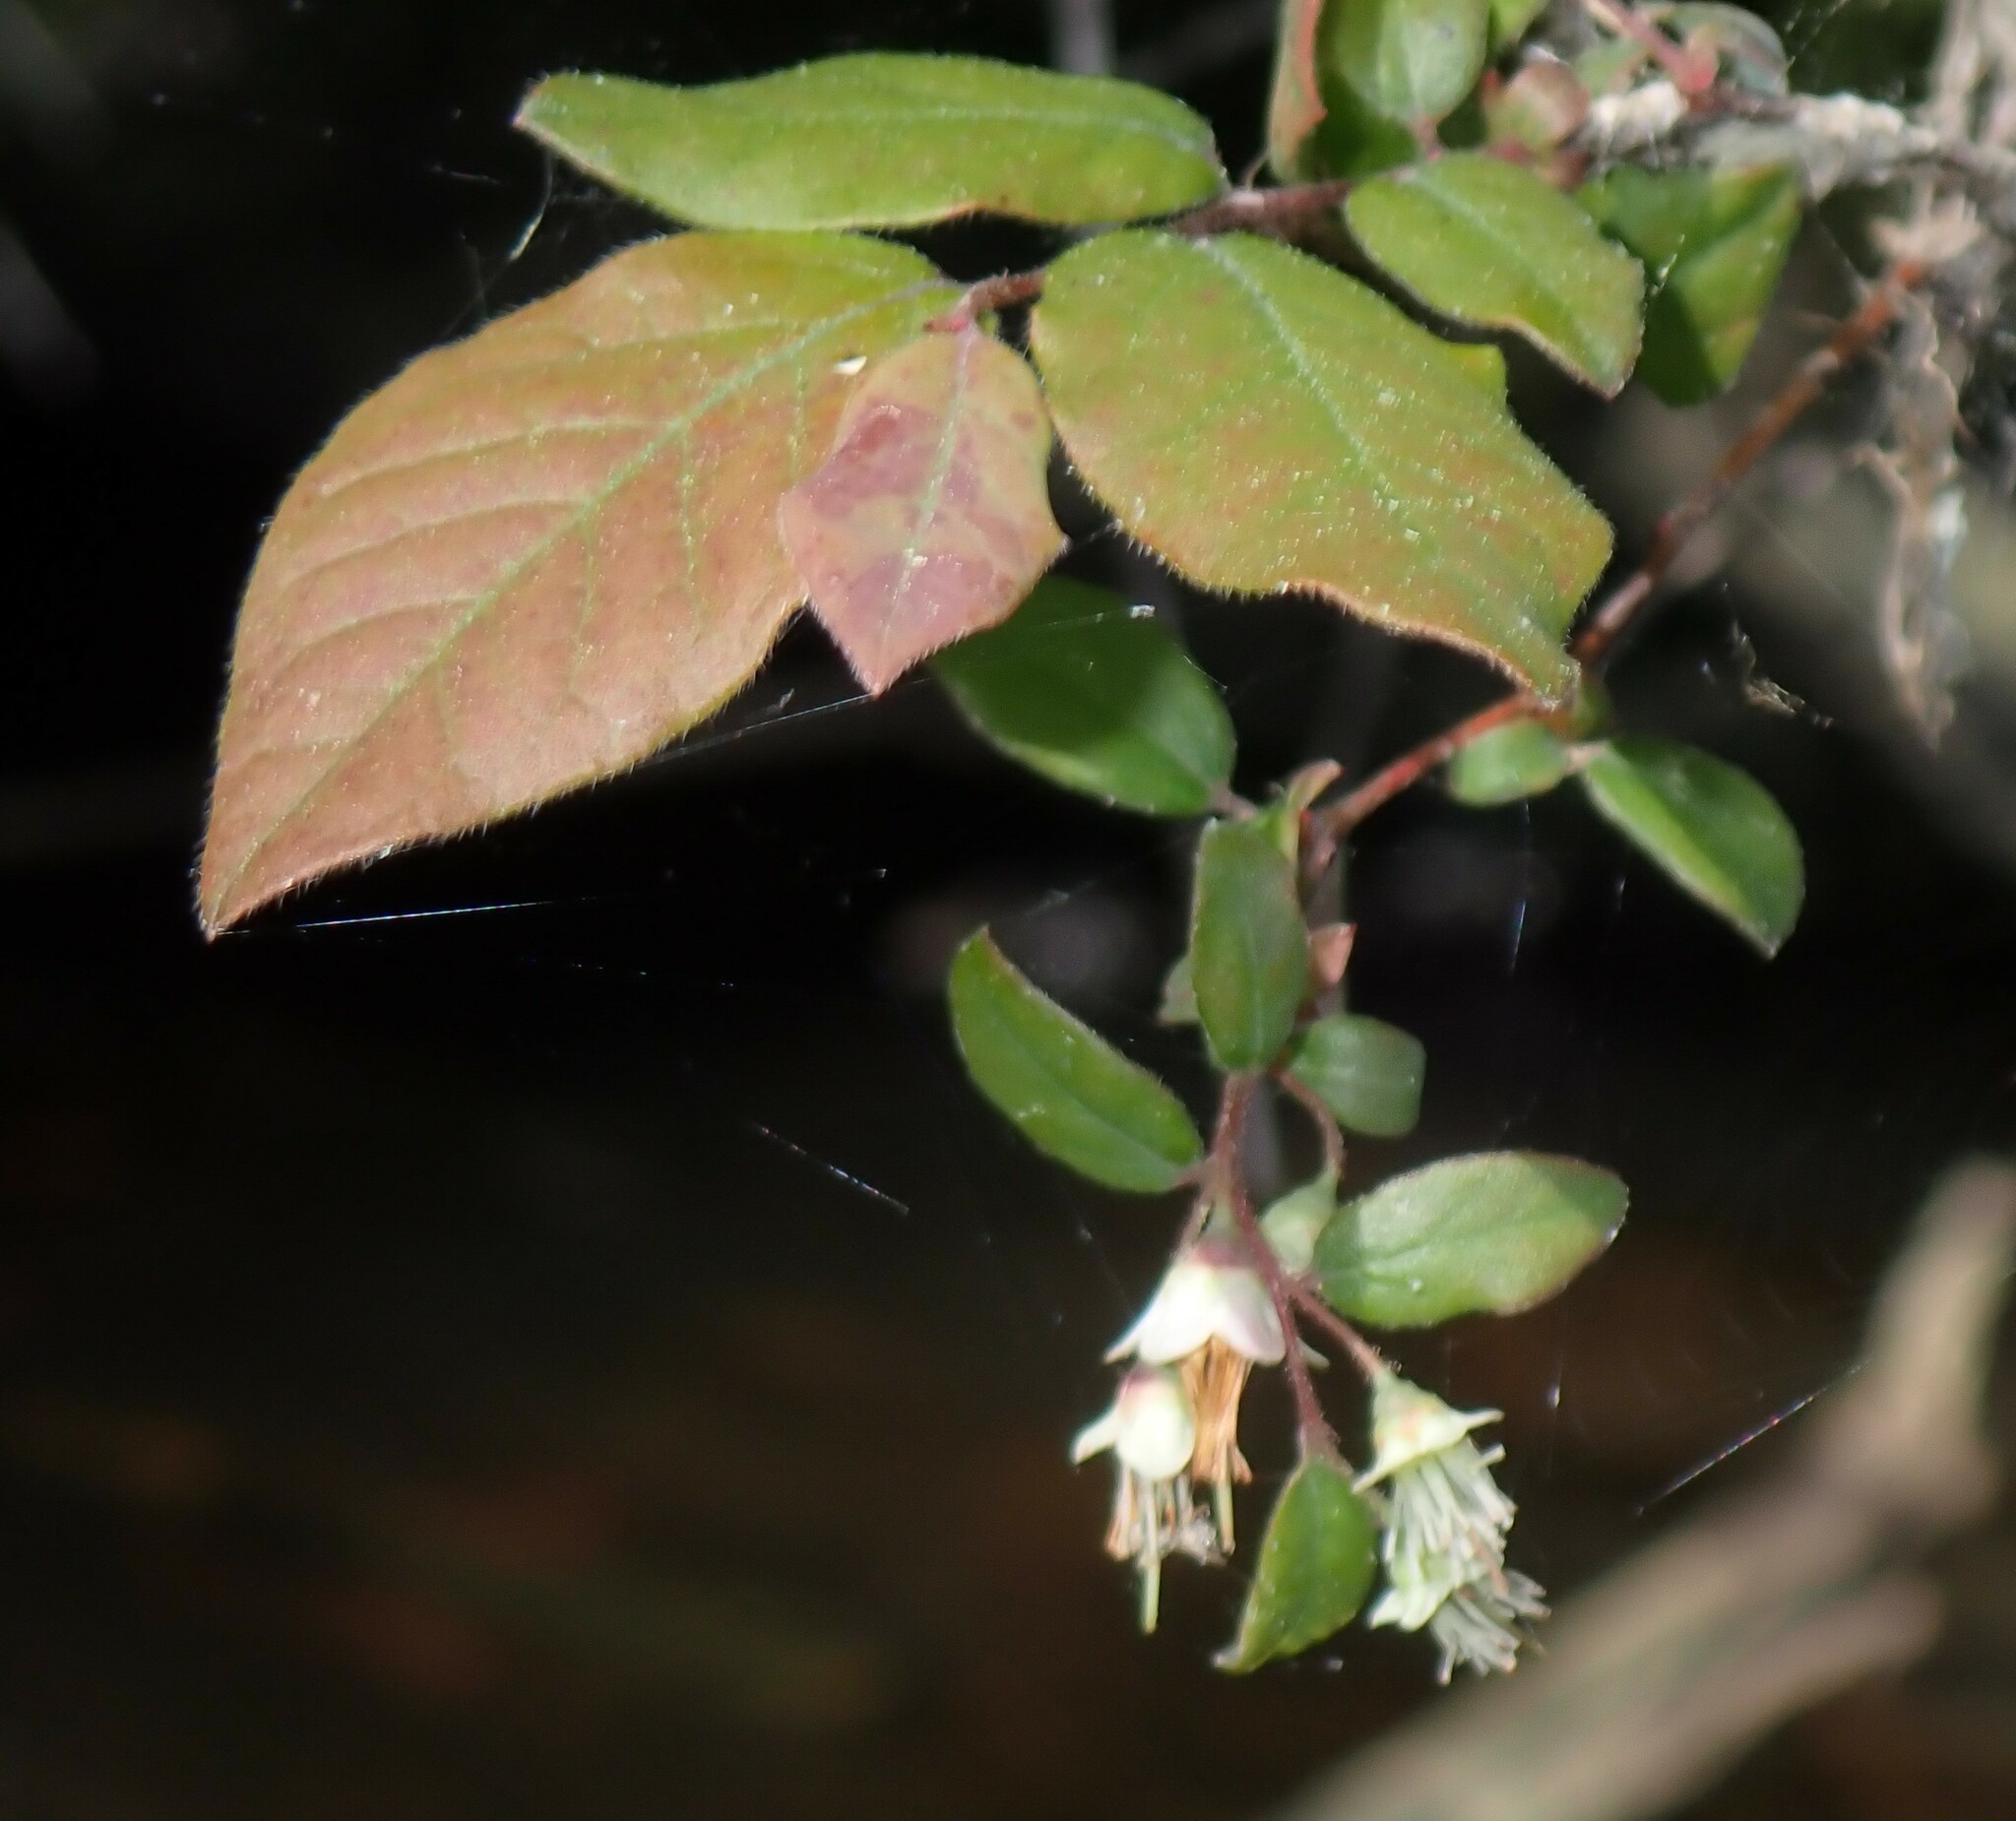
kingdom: Plantae
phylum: Tracheophyta
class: Magnoliopsida
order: Ericales
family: Ericaceae
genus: Vaccinium
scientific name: Vaccinium stamineum
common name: Deerberry
